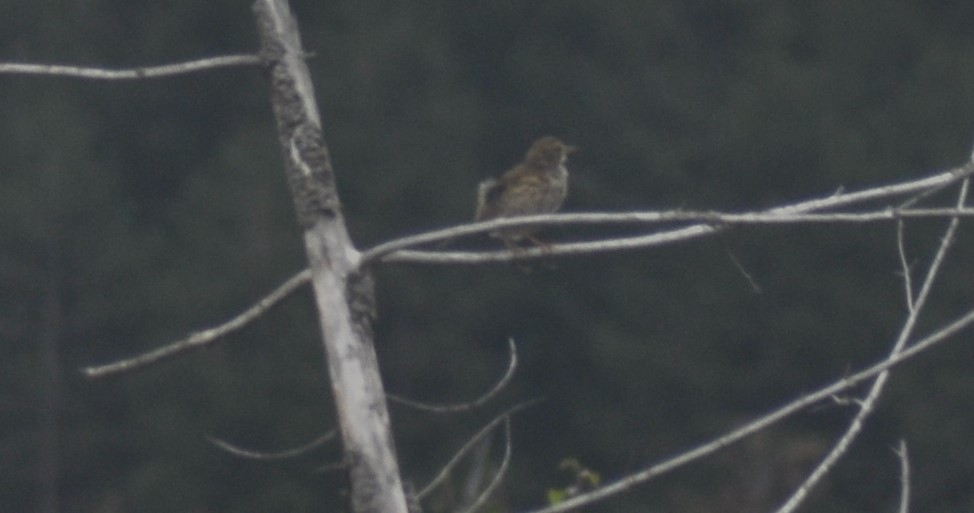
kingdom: Animalia
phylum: Chordata
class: Aves
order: Passeriformes
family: Turdidae
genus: Turdus
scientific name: Turdus philomelos
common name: Song thrush
